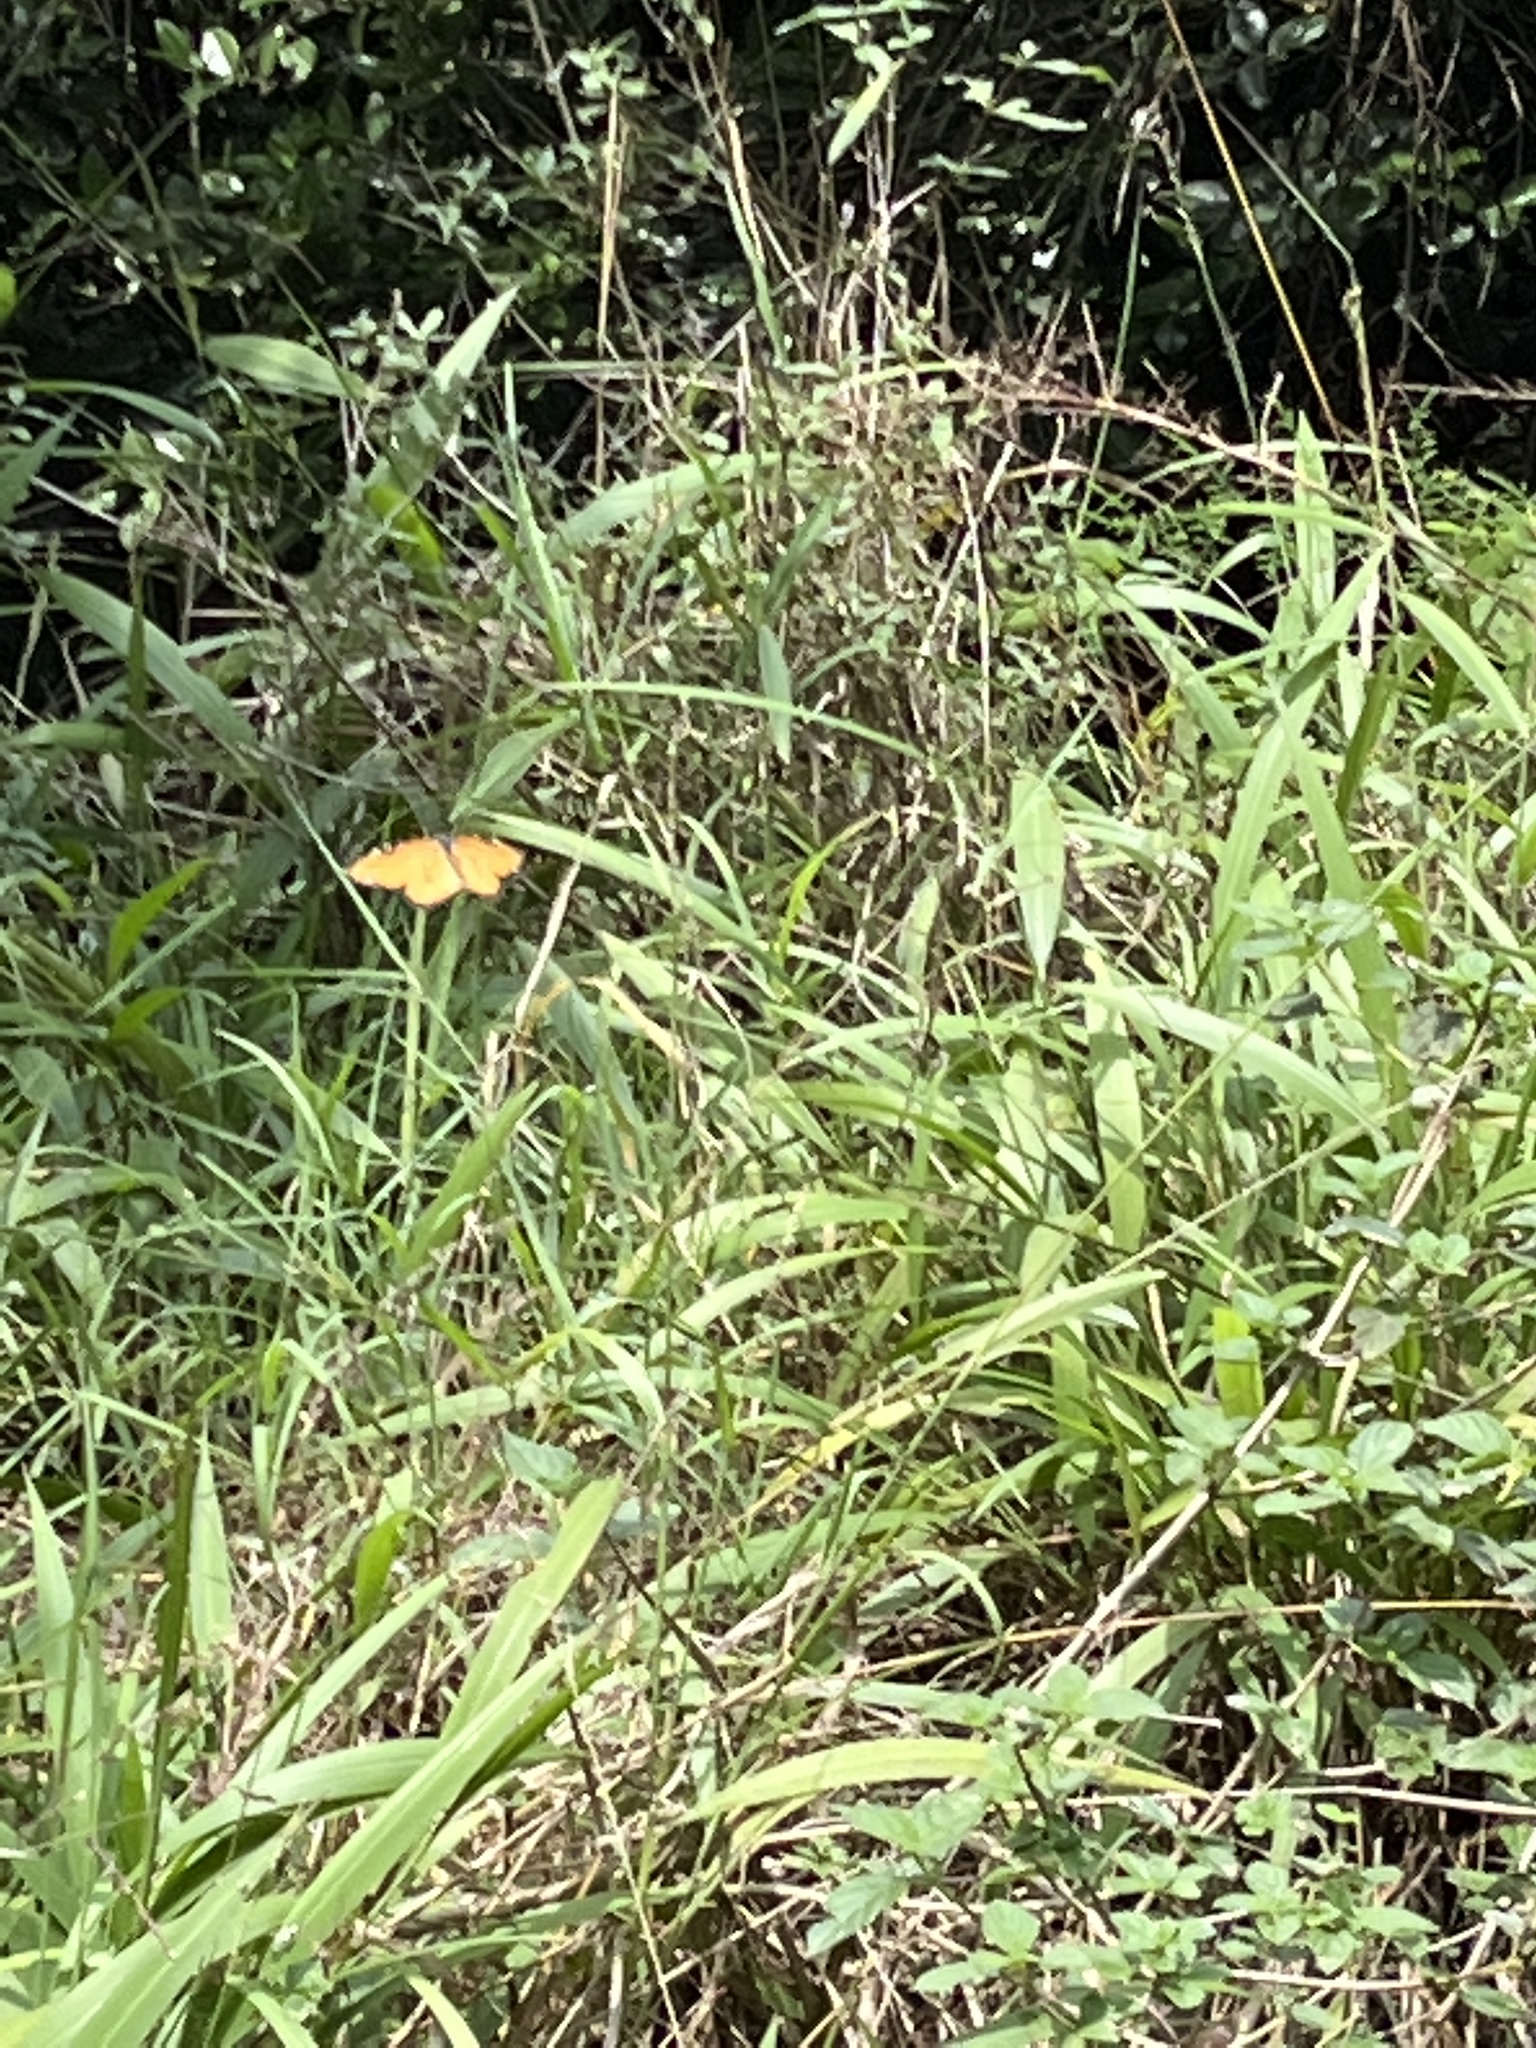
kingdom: Animalia
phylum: Arthropoda
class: Insecta
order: Lepidoptera
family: Nymphalidae
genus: Hypolimnas
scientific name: Hypolimnas misippus
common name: False plain tiger
